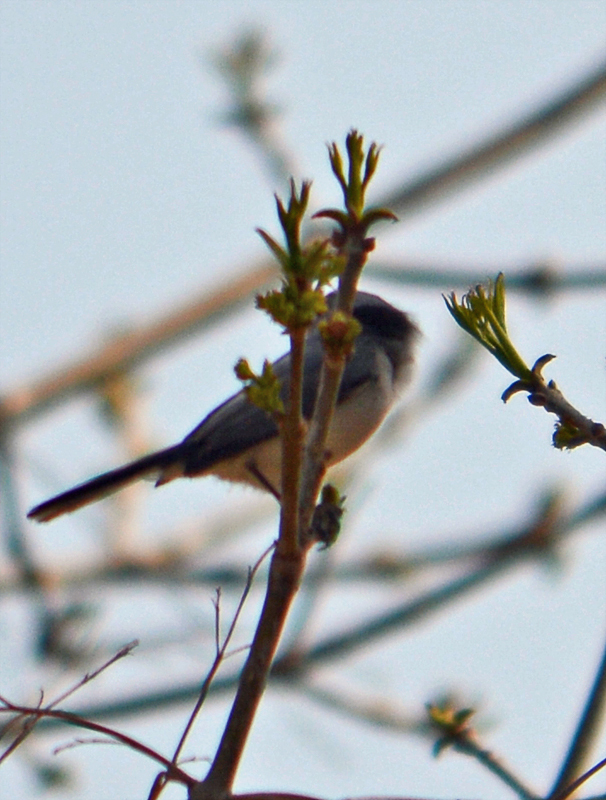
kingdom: Animalia
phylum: Chordata
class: Aves
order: Passeriformes
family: Polioptilidae
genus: Polioptila
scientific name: Polioptila caerulea
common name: Blue-gray gnatcatcher
